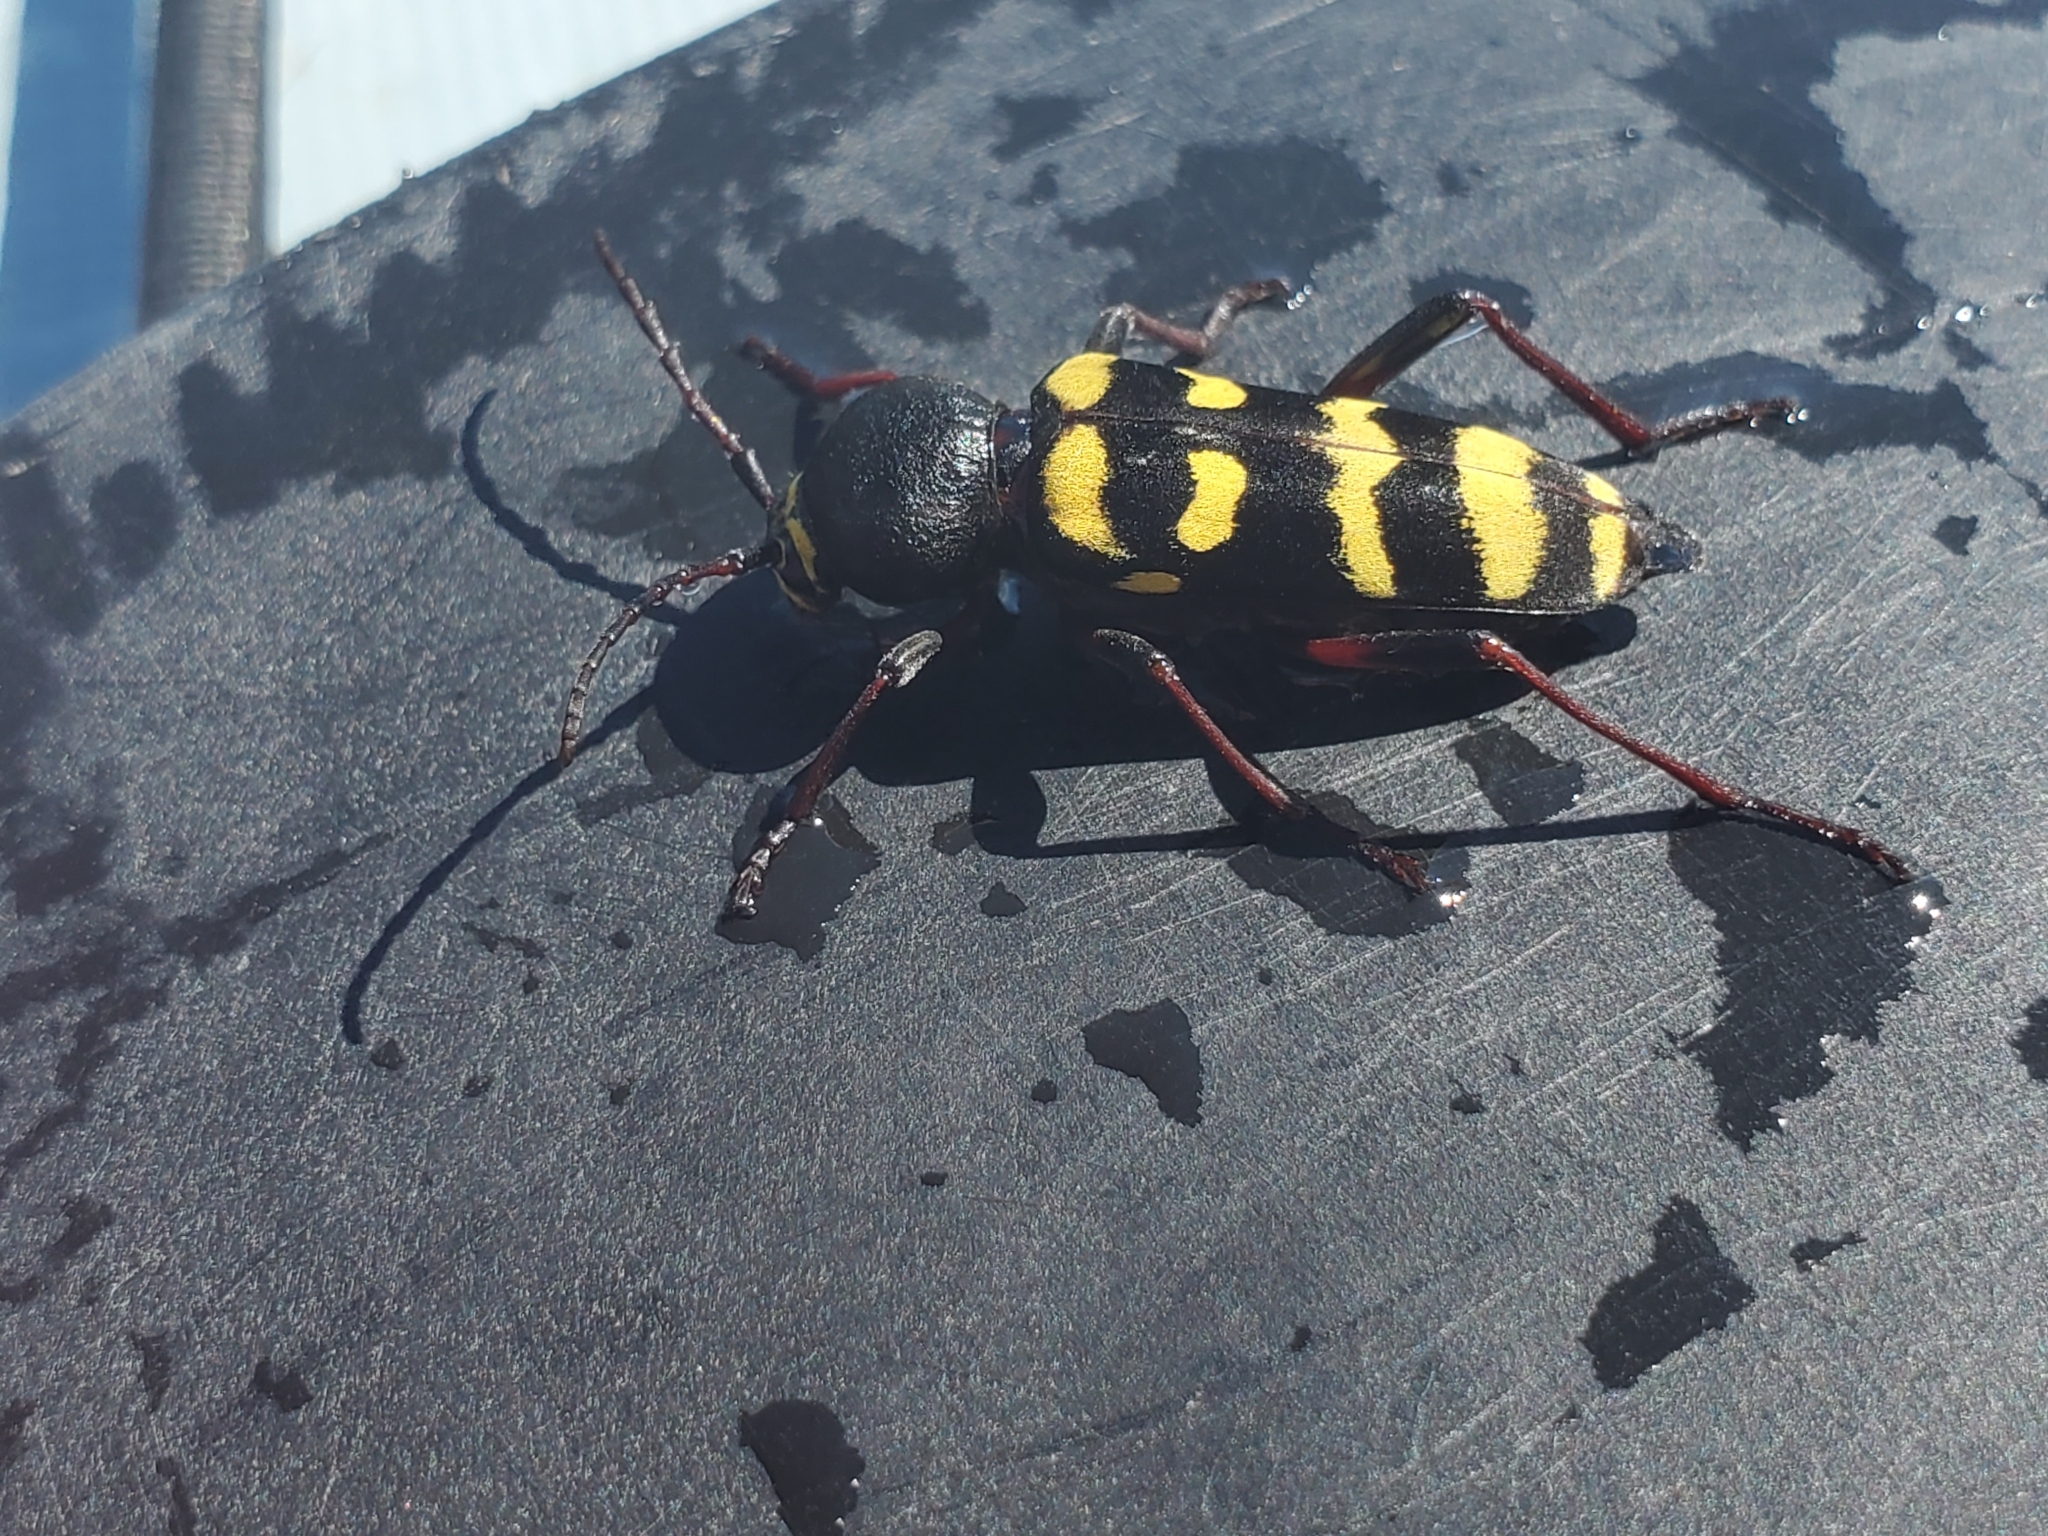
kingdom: Animalia
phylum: Arthropoda
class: Insecta
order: Coleoptera
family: Cerambycidae
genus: Calloides
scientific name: Calloides nobilis
